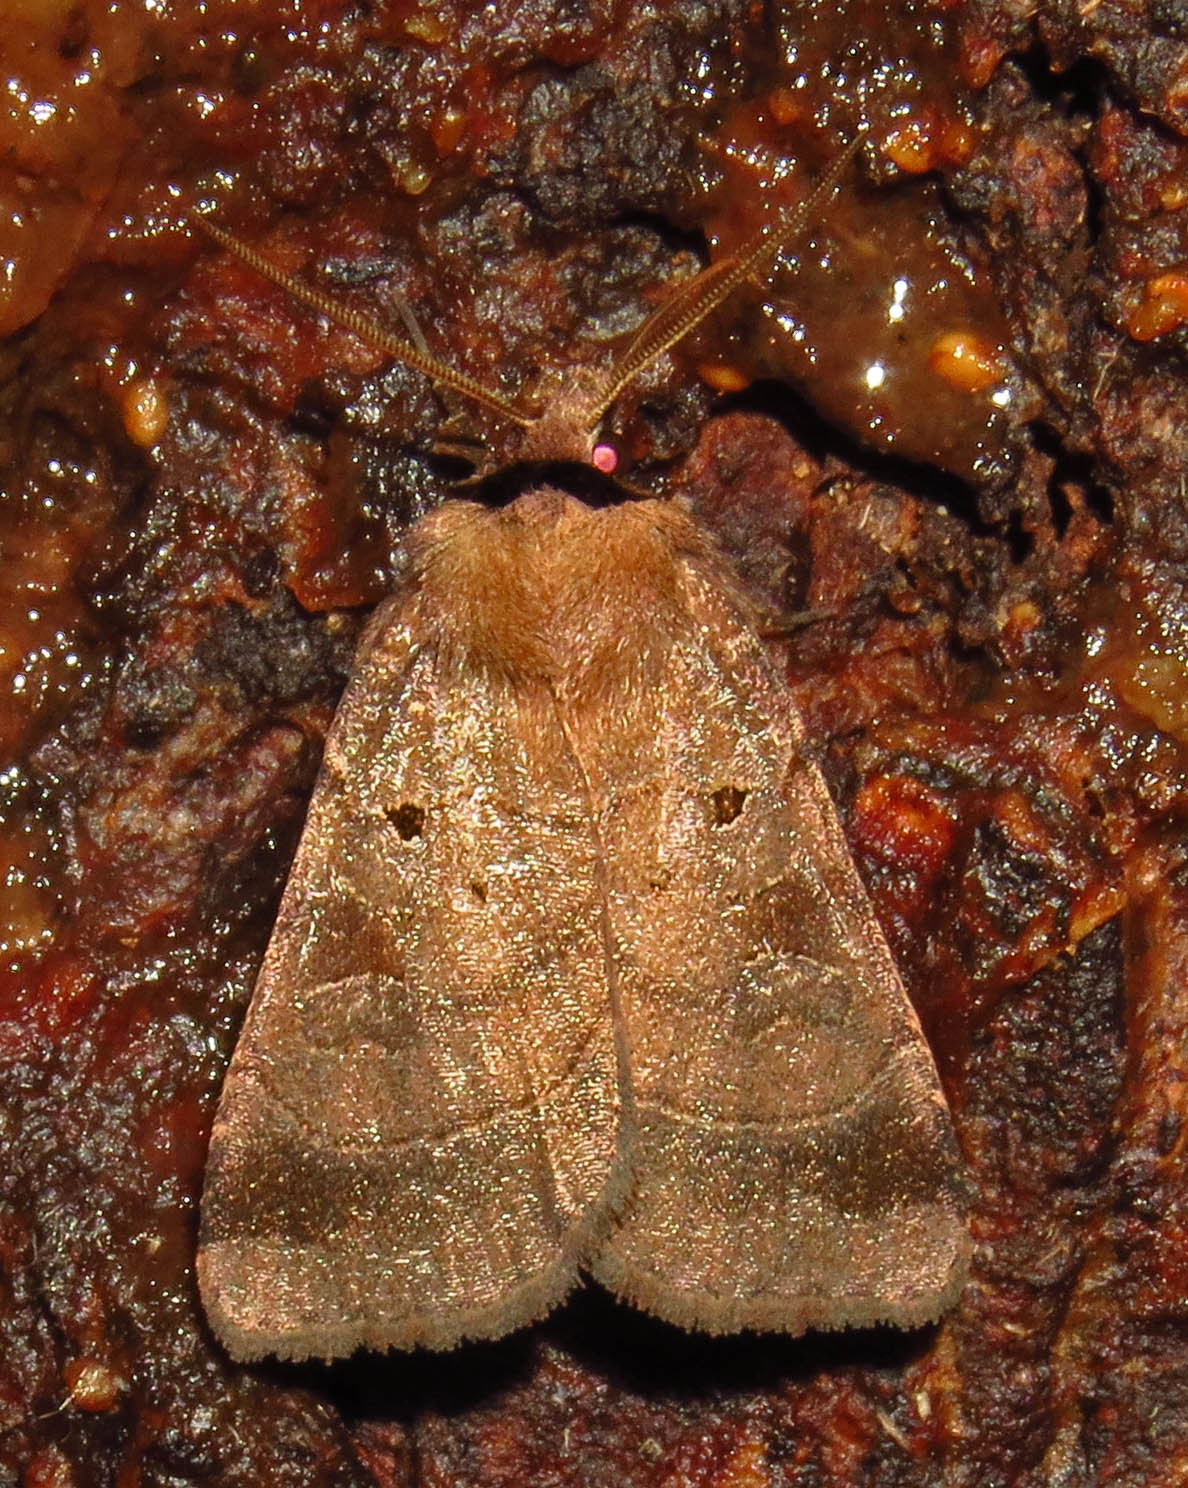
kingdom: Animalia
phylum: Arthropoda
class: Insecta
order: Lepidoptera
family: Noctuidae
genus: Agnorisma
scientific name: Agnorisma badinodis
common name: Pale-banded dart
